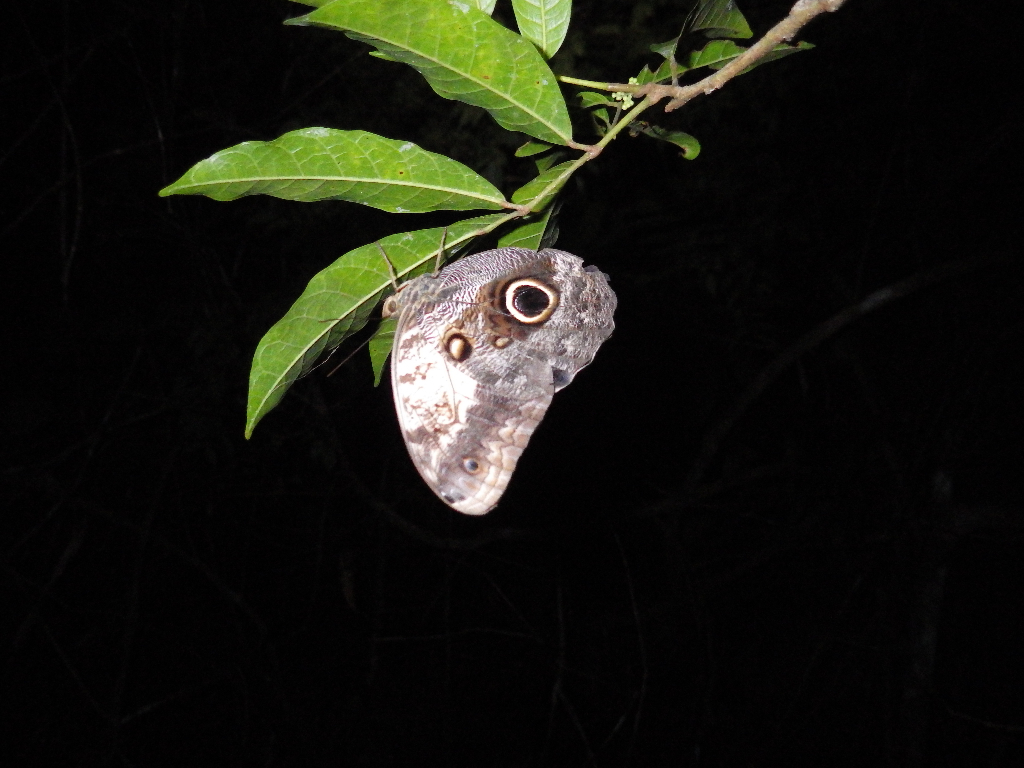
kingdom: Animalia
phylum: Arthropoda
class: Insecta
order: Lepidoptera
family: Nymphalidae
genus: Caligo
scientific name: Caligo telamonius
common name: Pale owl-butterfly
